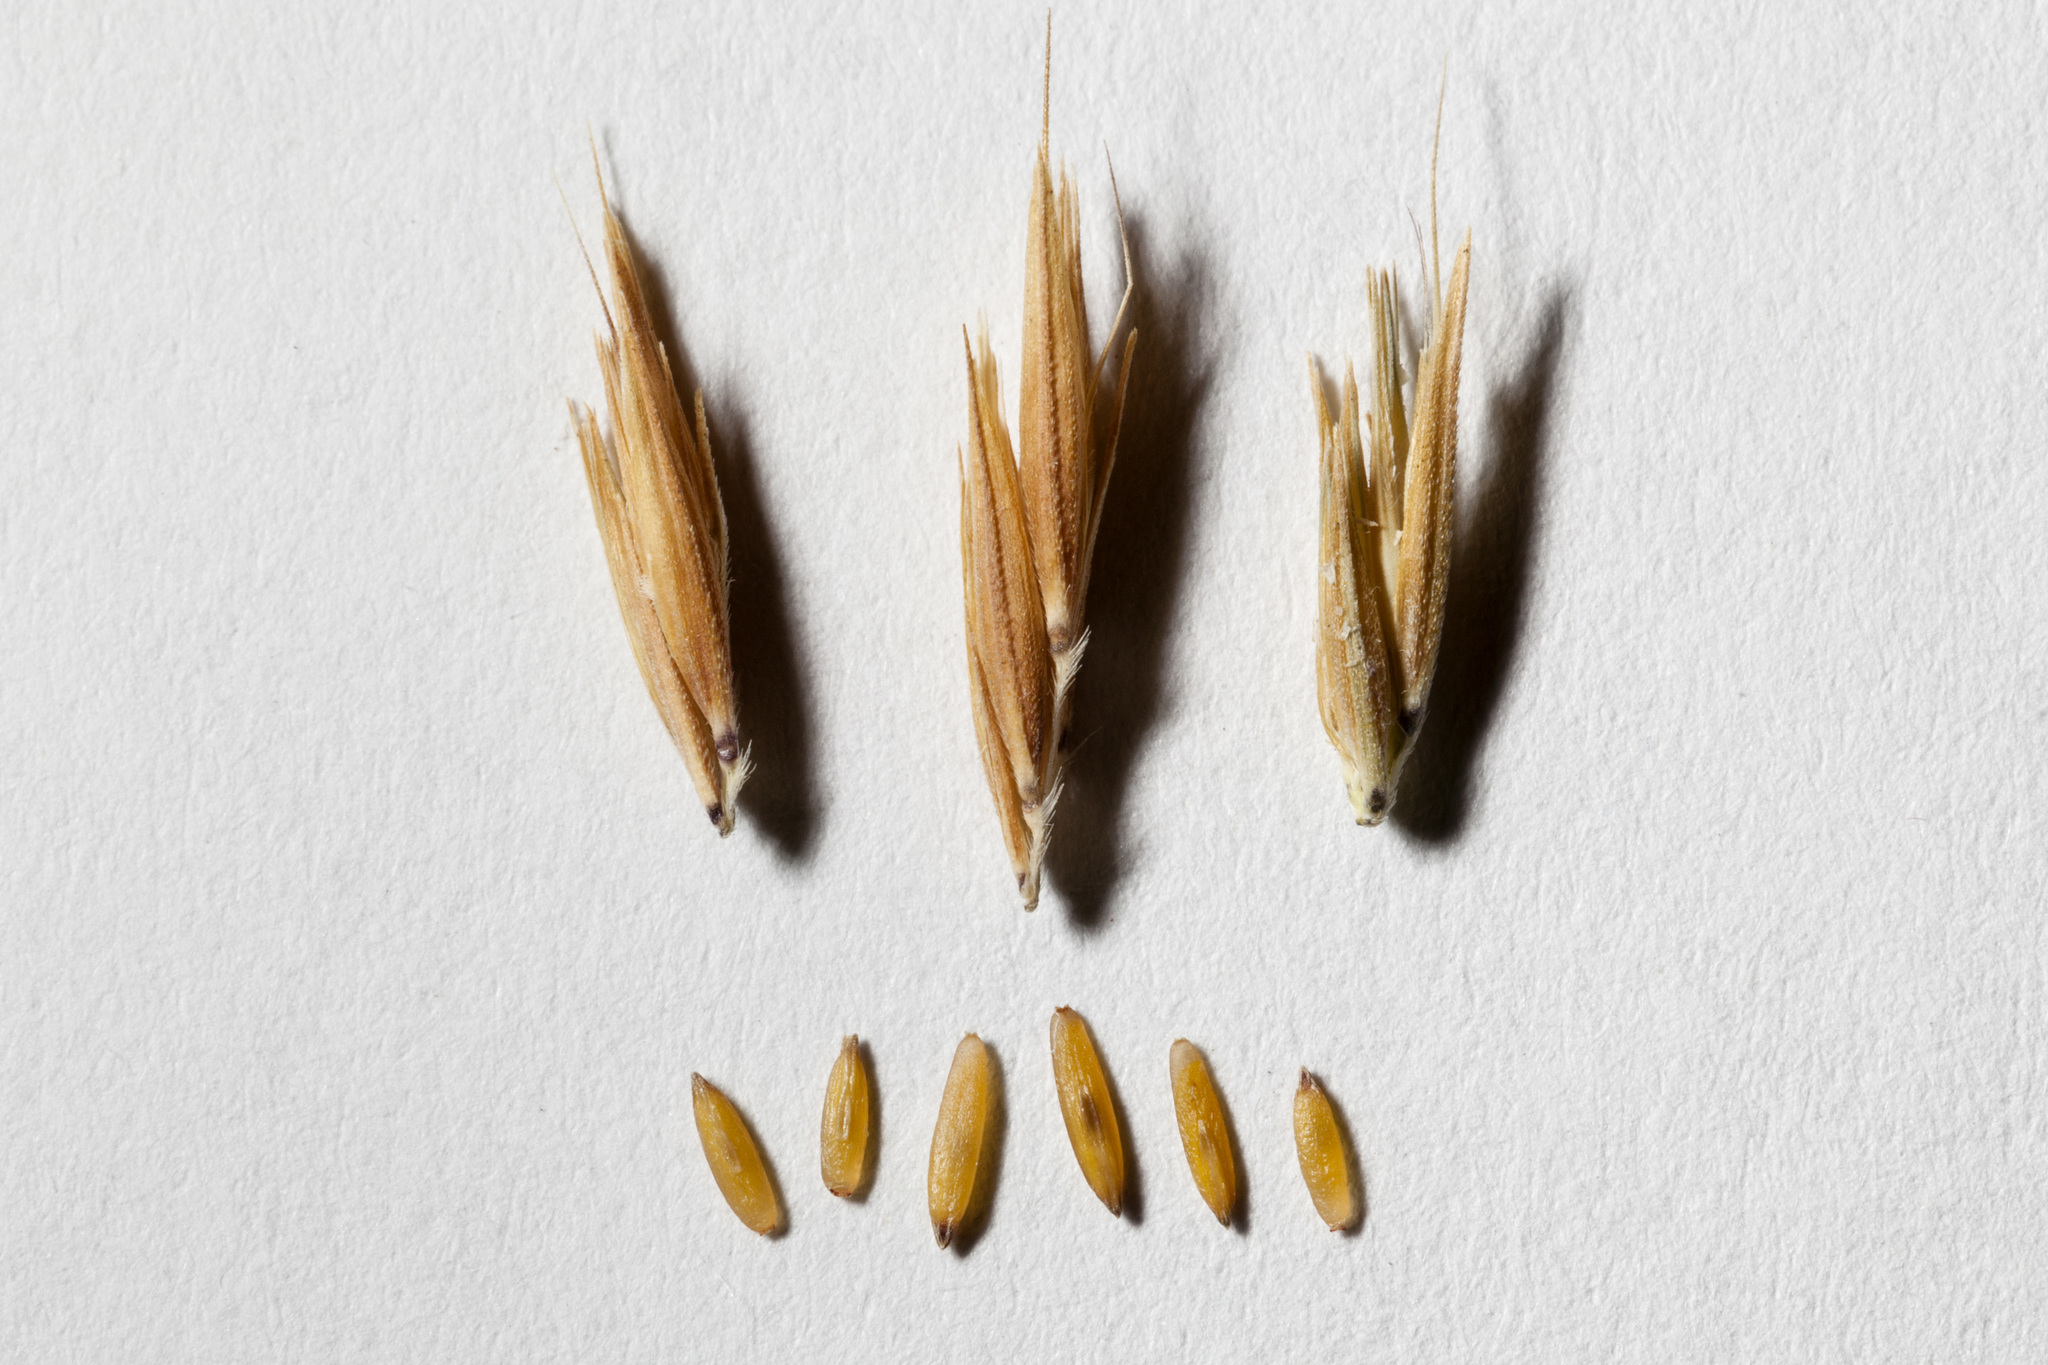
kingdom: Plantae
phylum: Tracheophyta
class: Liliopsida
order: Poales
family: Poaceae
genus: Bouteloua
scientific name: Bouteloua curtipendula
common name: Side-oats grama
